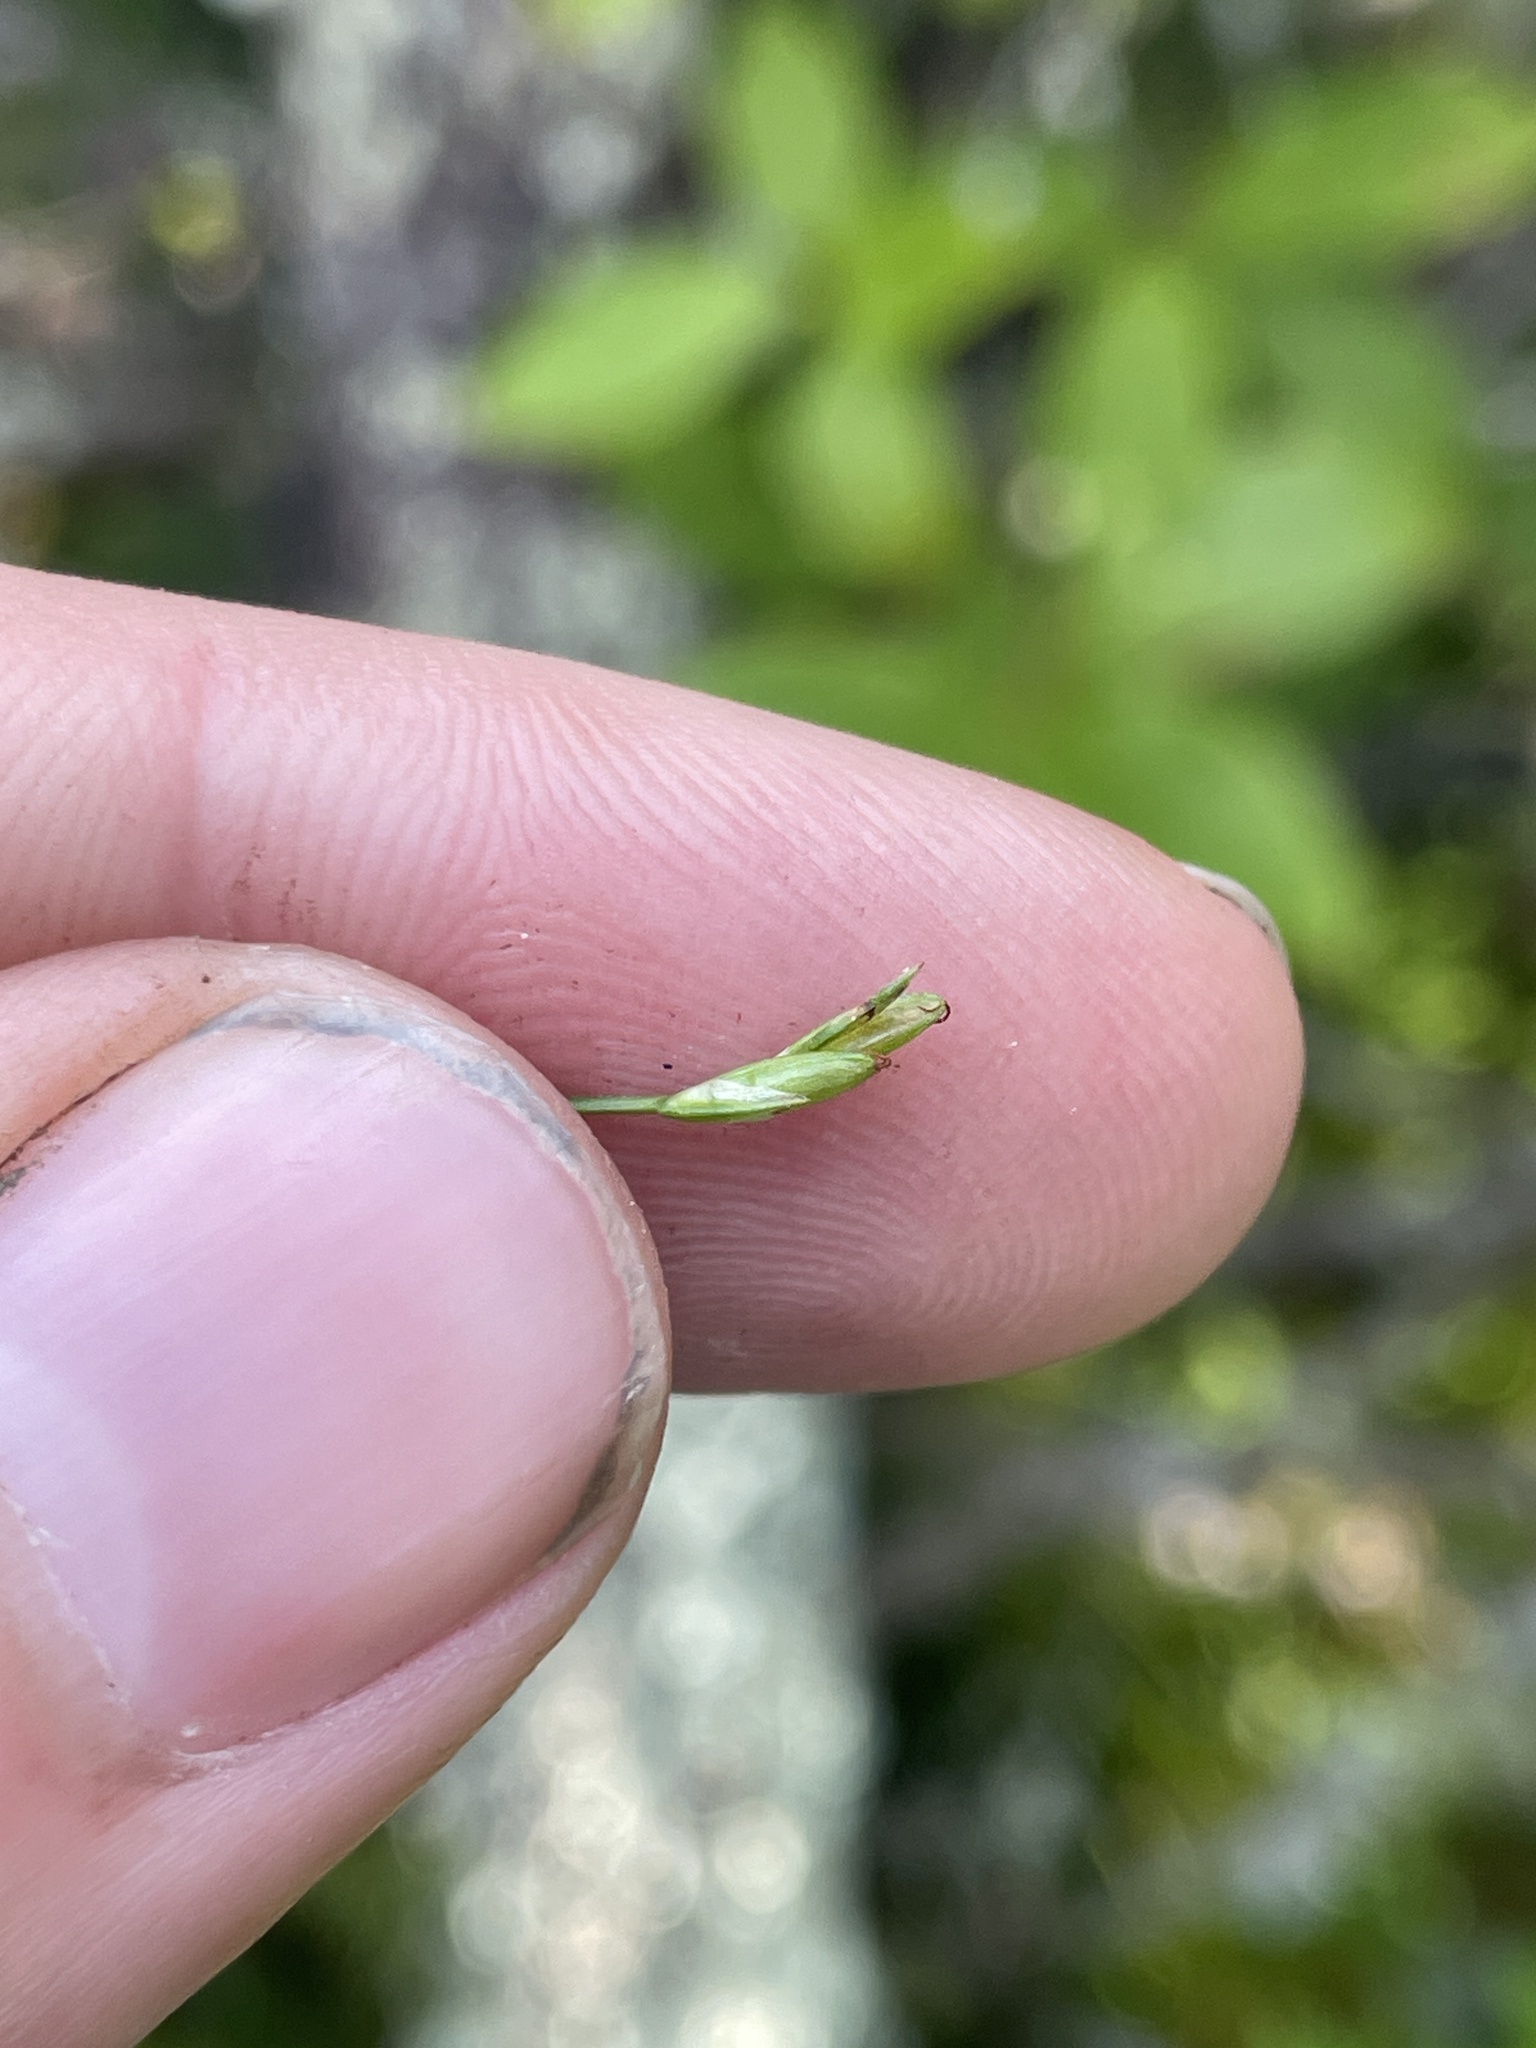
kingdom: Plantae
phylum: Tracheophyta
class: Liliopsida
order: Poales
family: Cyperaceae
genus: Carex
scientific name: Carex leptalea
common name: Bristly-stalked sedge
